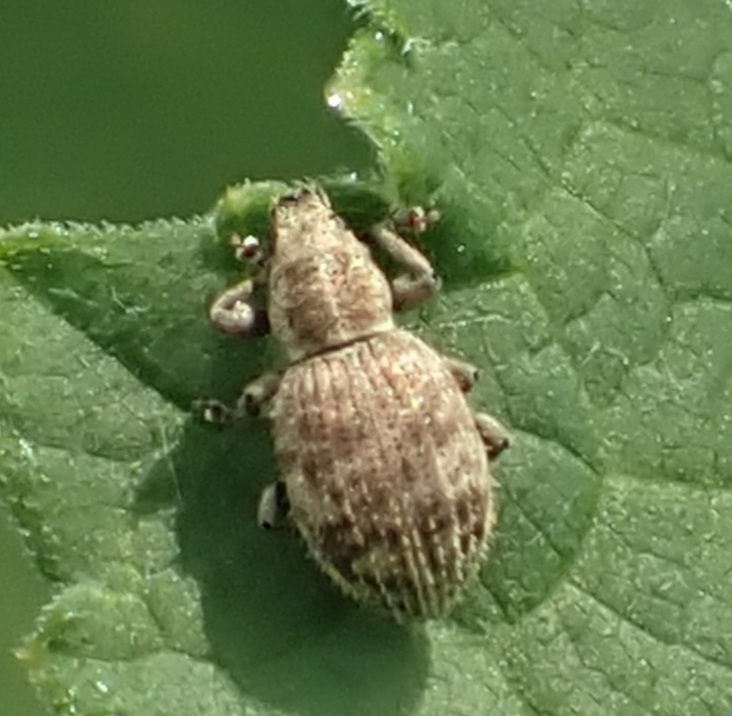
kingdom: Animalia
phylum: Arthropoda
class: Insecta
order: Coleoptera
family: Curculionidae
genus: Sciaphilus
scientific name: Sciaphilus asperatus
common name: Weevil
